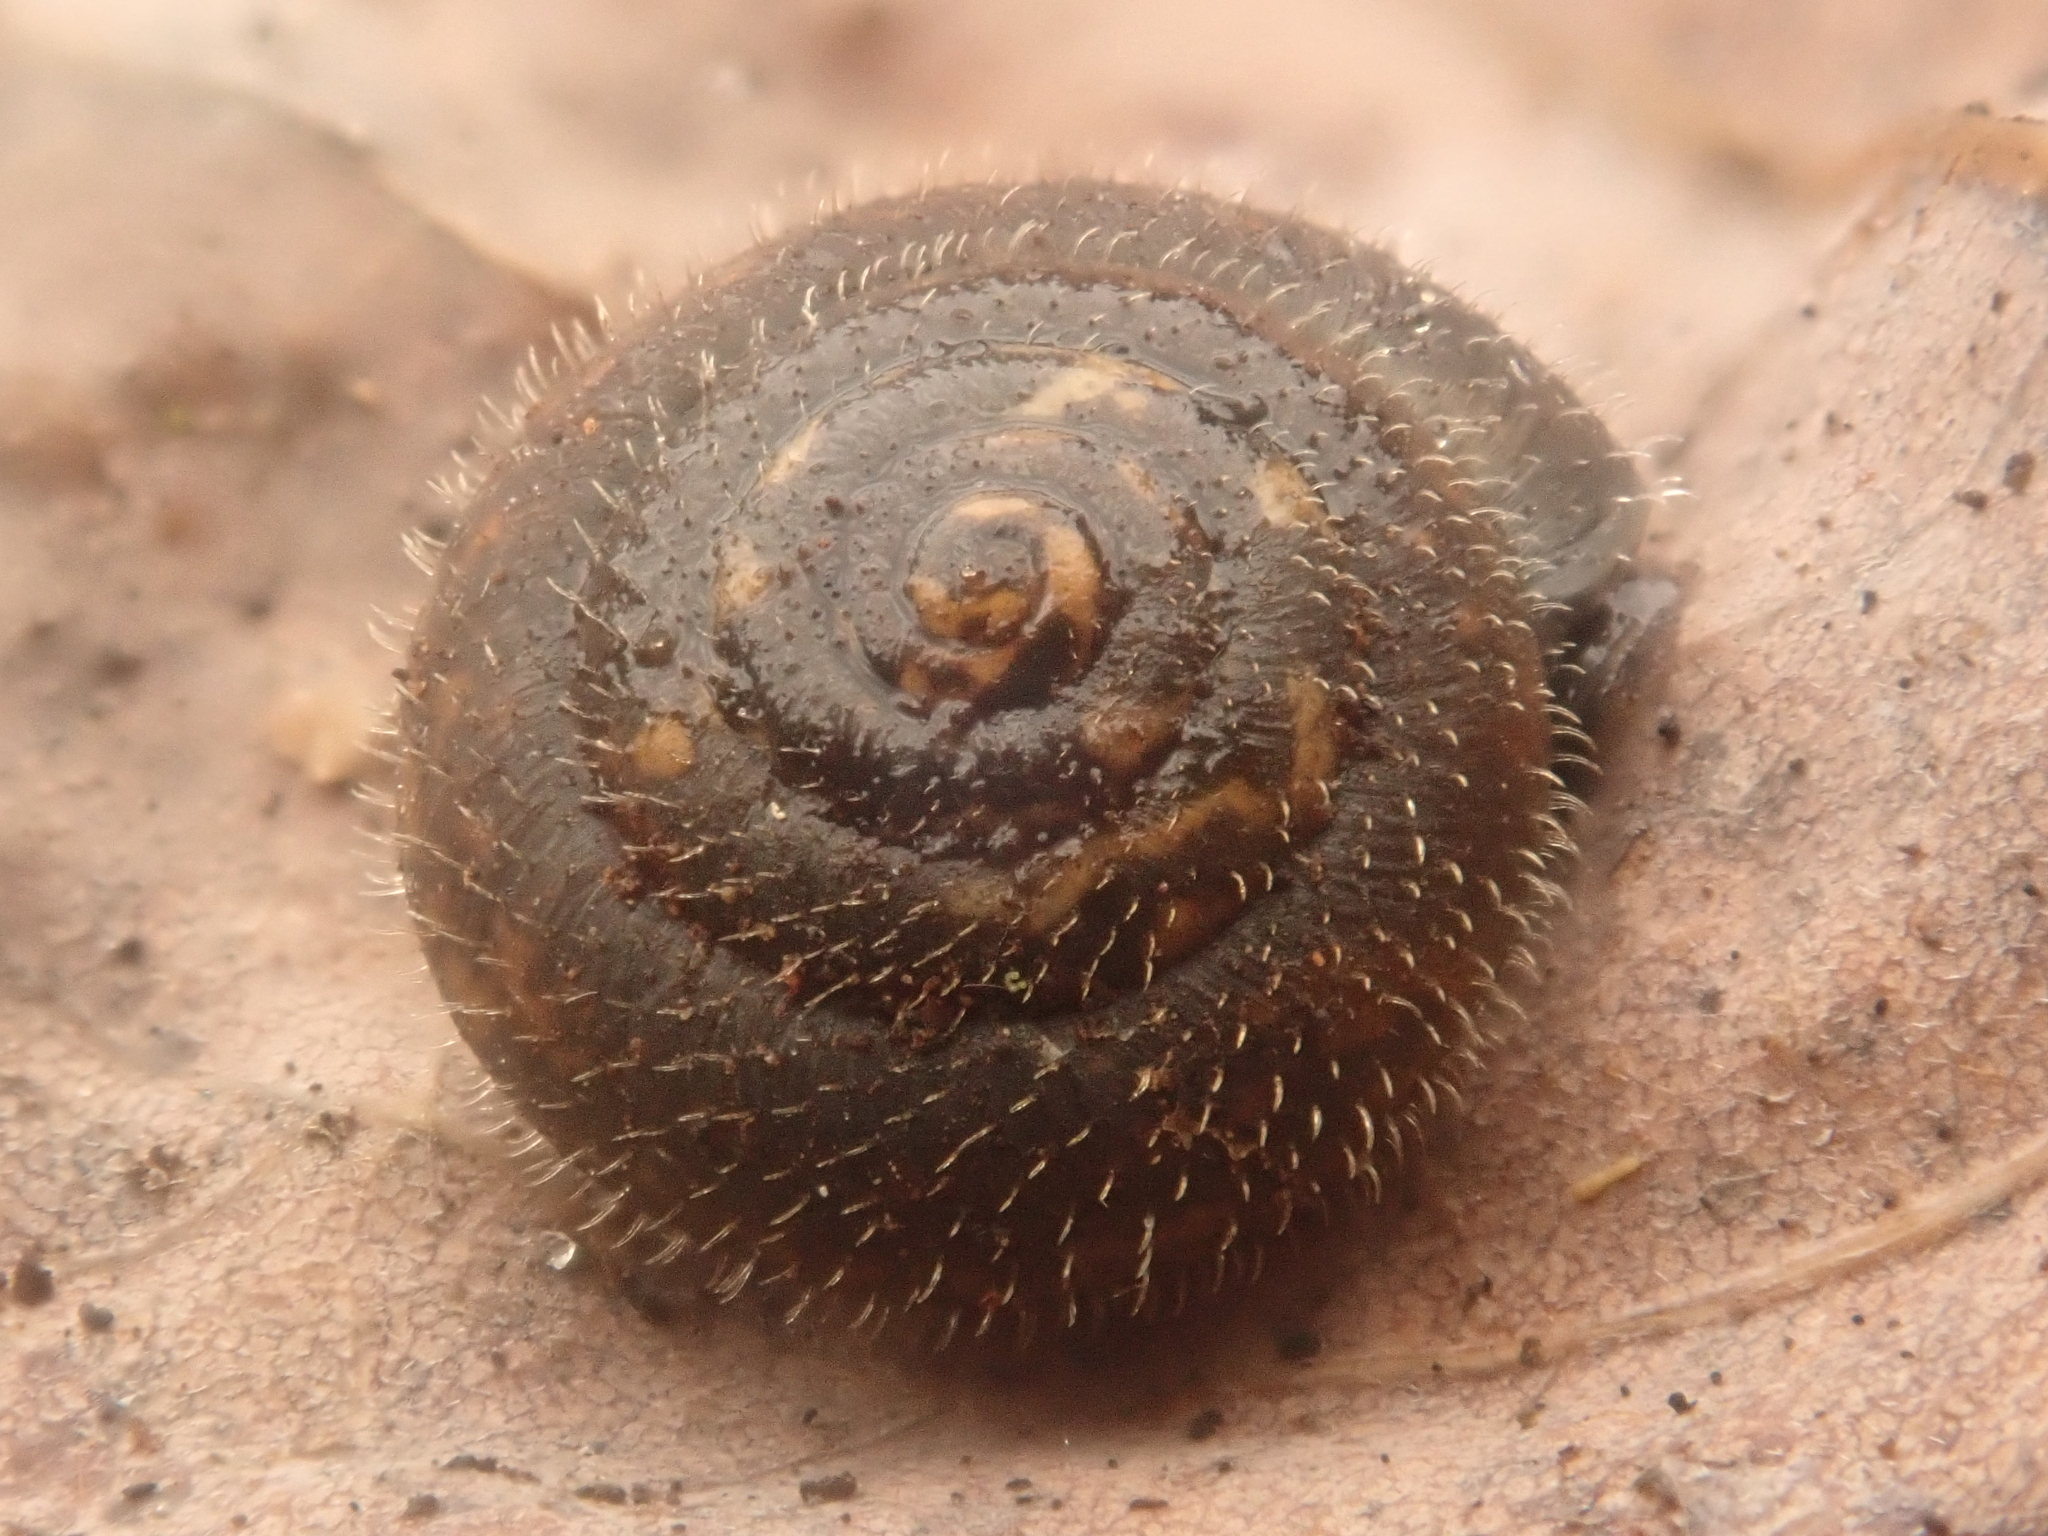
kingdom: Animalia
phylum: Mollusca
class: Gastropoda
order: Stylommatophora
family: Hygromiidae
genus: Trochulus
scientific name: Trochulus hispidus
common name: Hairy snail
